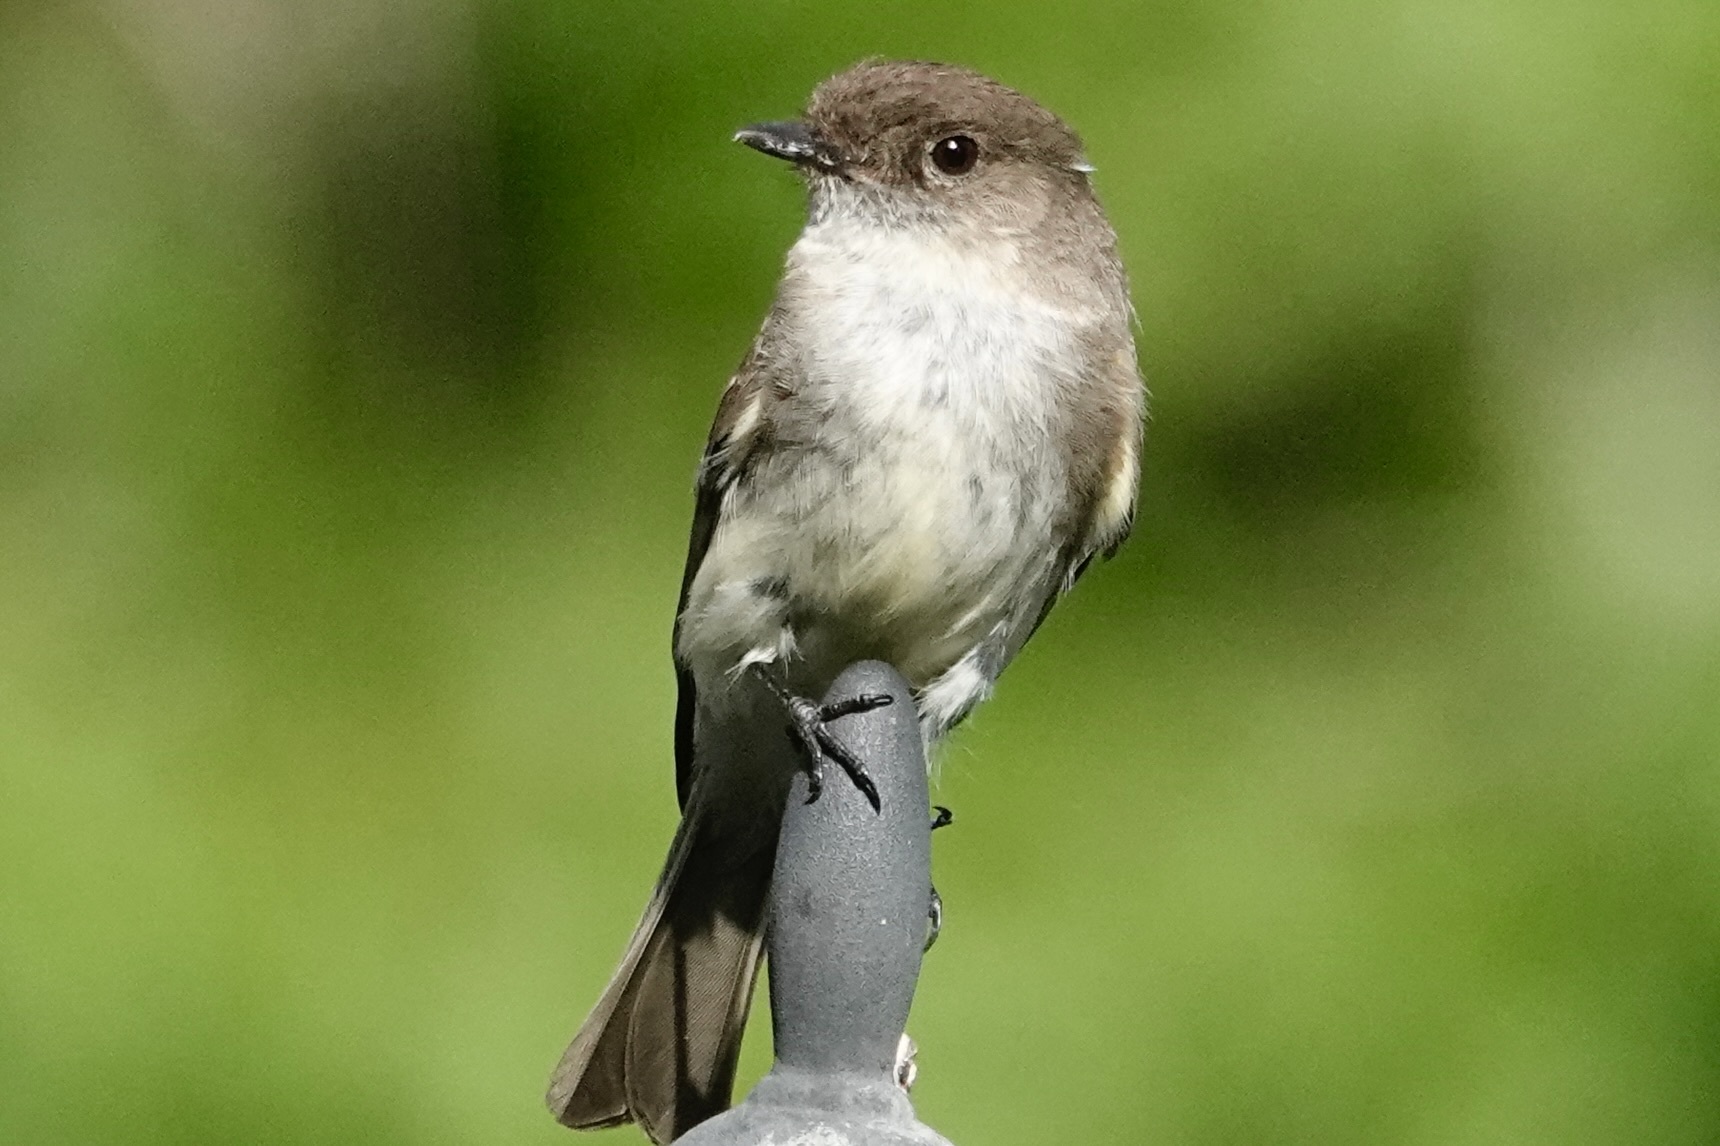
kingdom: Animalia
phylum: Chordata
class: Aves
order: Passeriformes
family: Tyrannidae
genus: Sayornis
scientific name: Sayornis phoebe
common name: Eastern phoebe
